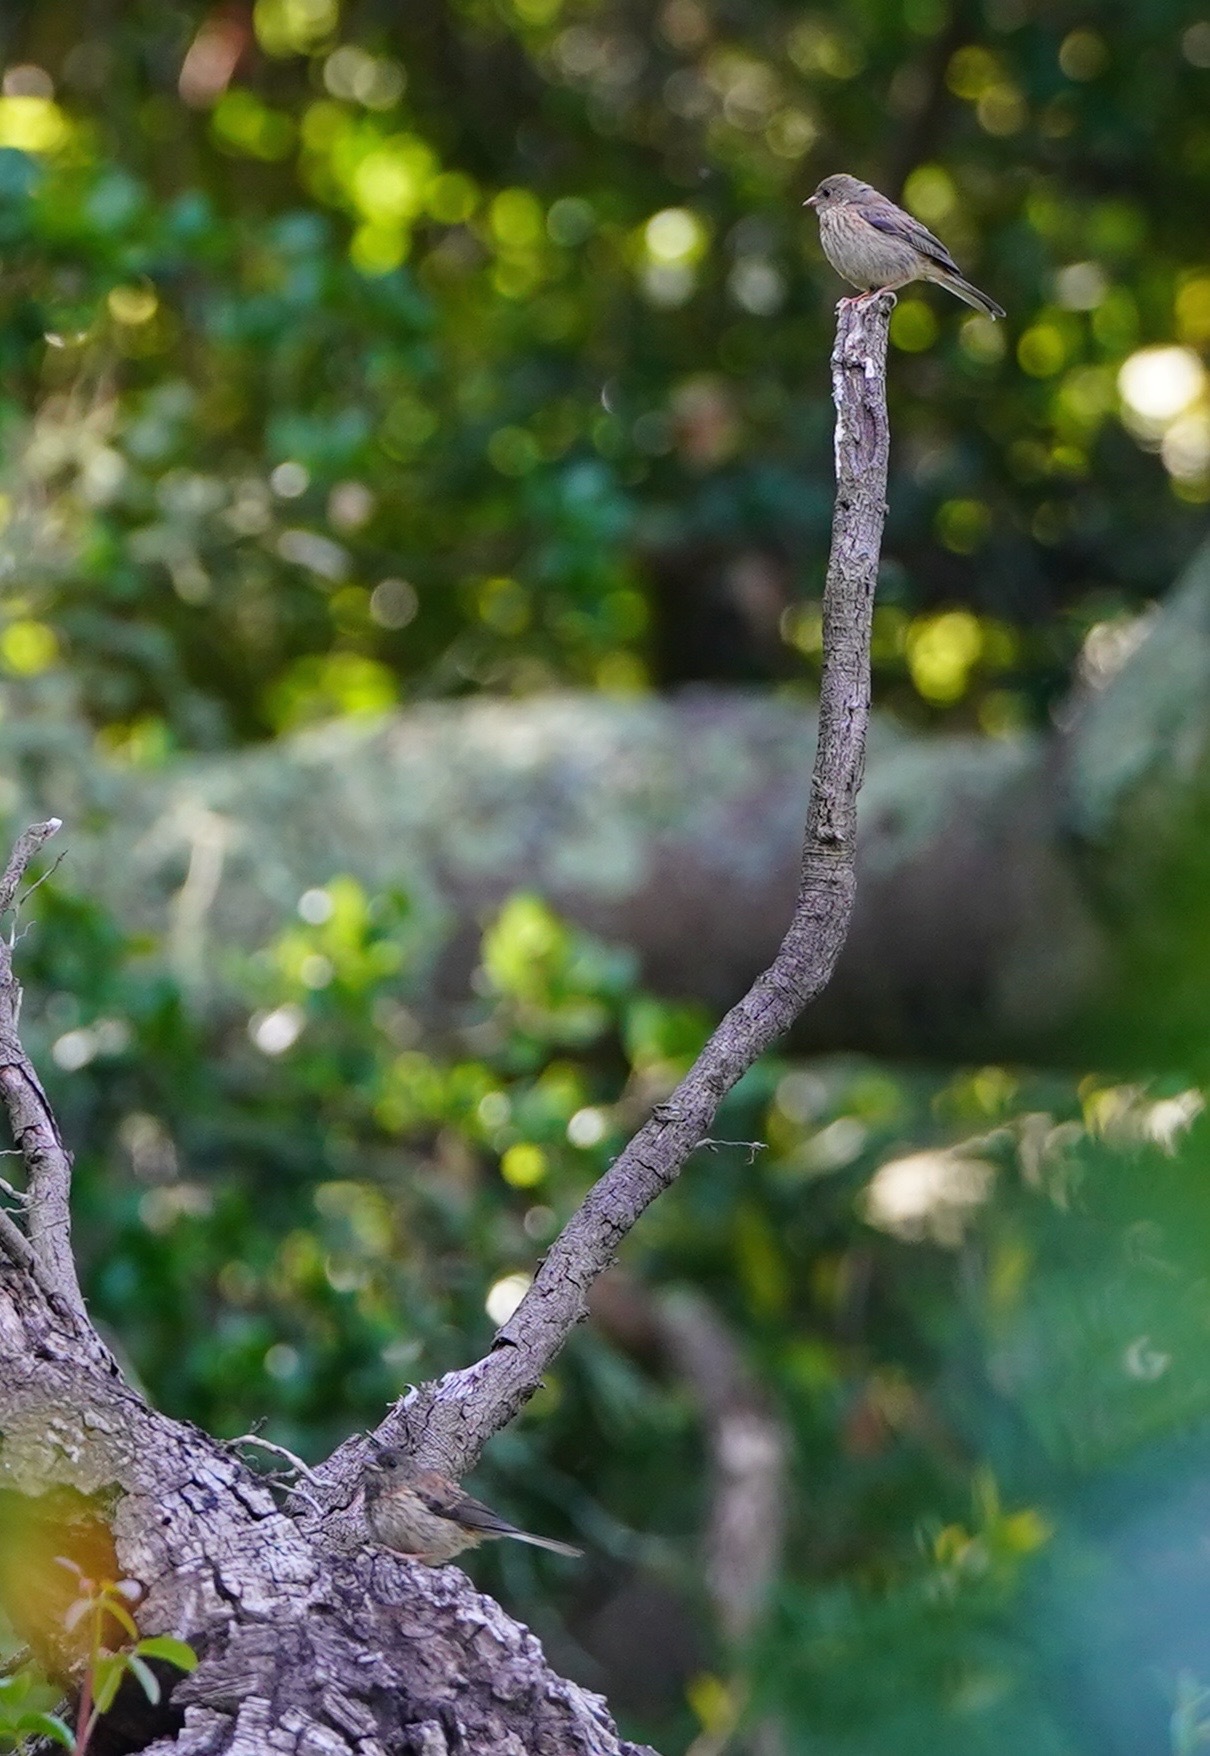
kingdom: Animalia
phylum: Chordata
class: Aves
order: Passeriformes
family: Passerellidae
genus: Junco
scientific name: Junco hyemalis
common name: Dark-eyed junco
